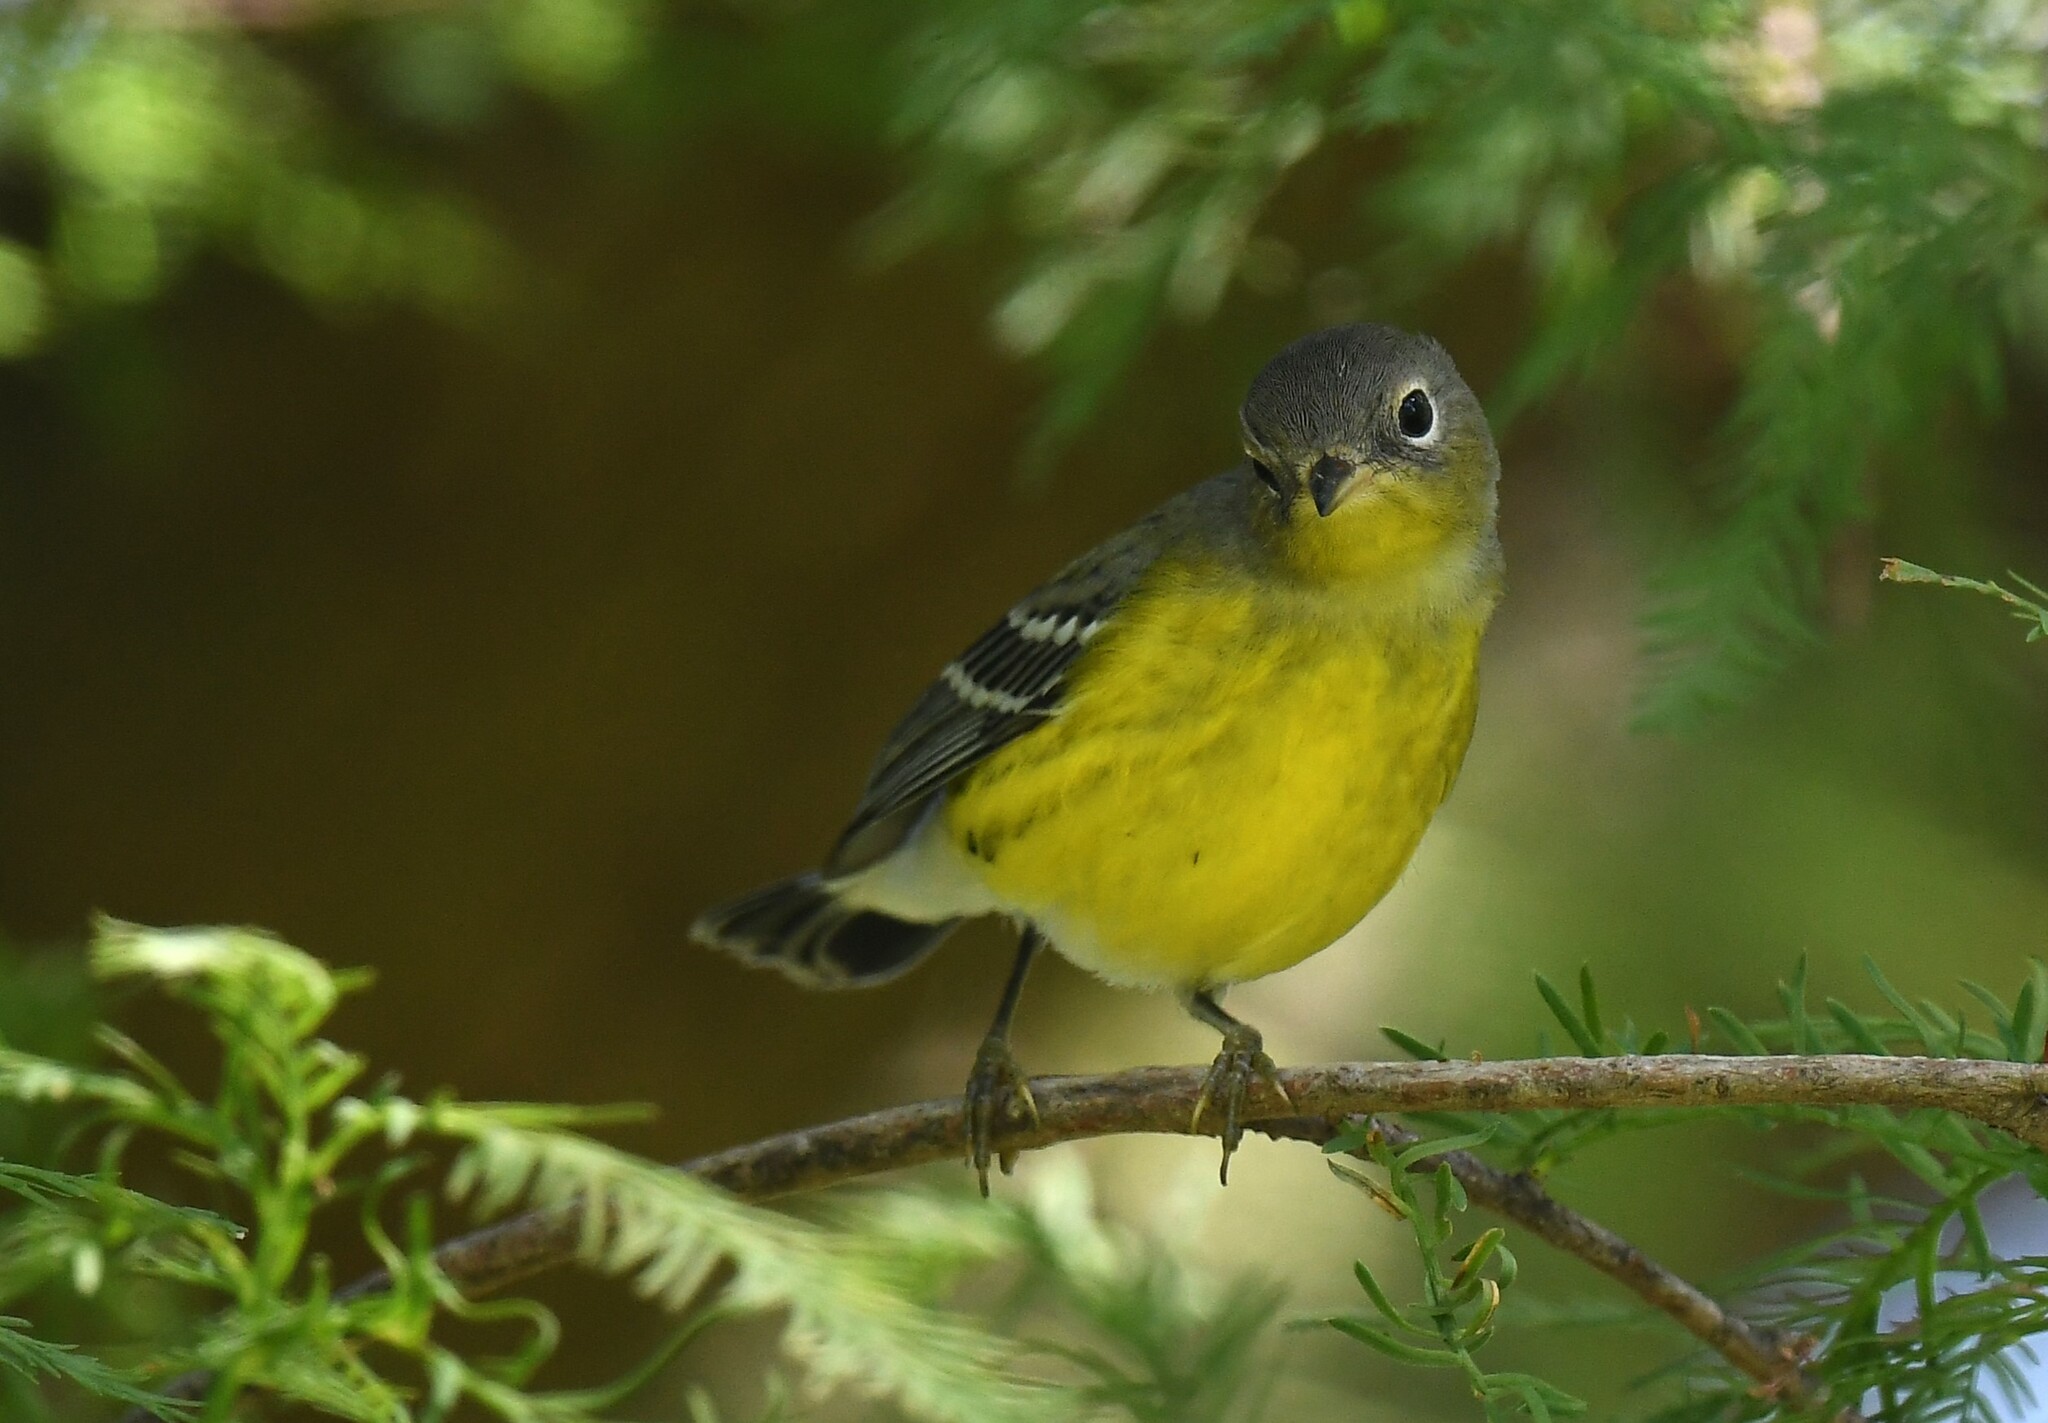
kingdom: Animalia
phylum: Chordata
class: Aves
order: Passeriformes
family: Parulidae
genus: Setophaga
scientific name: Setophaga magnolia
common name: Magnolia warbler
